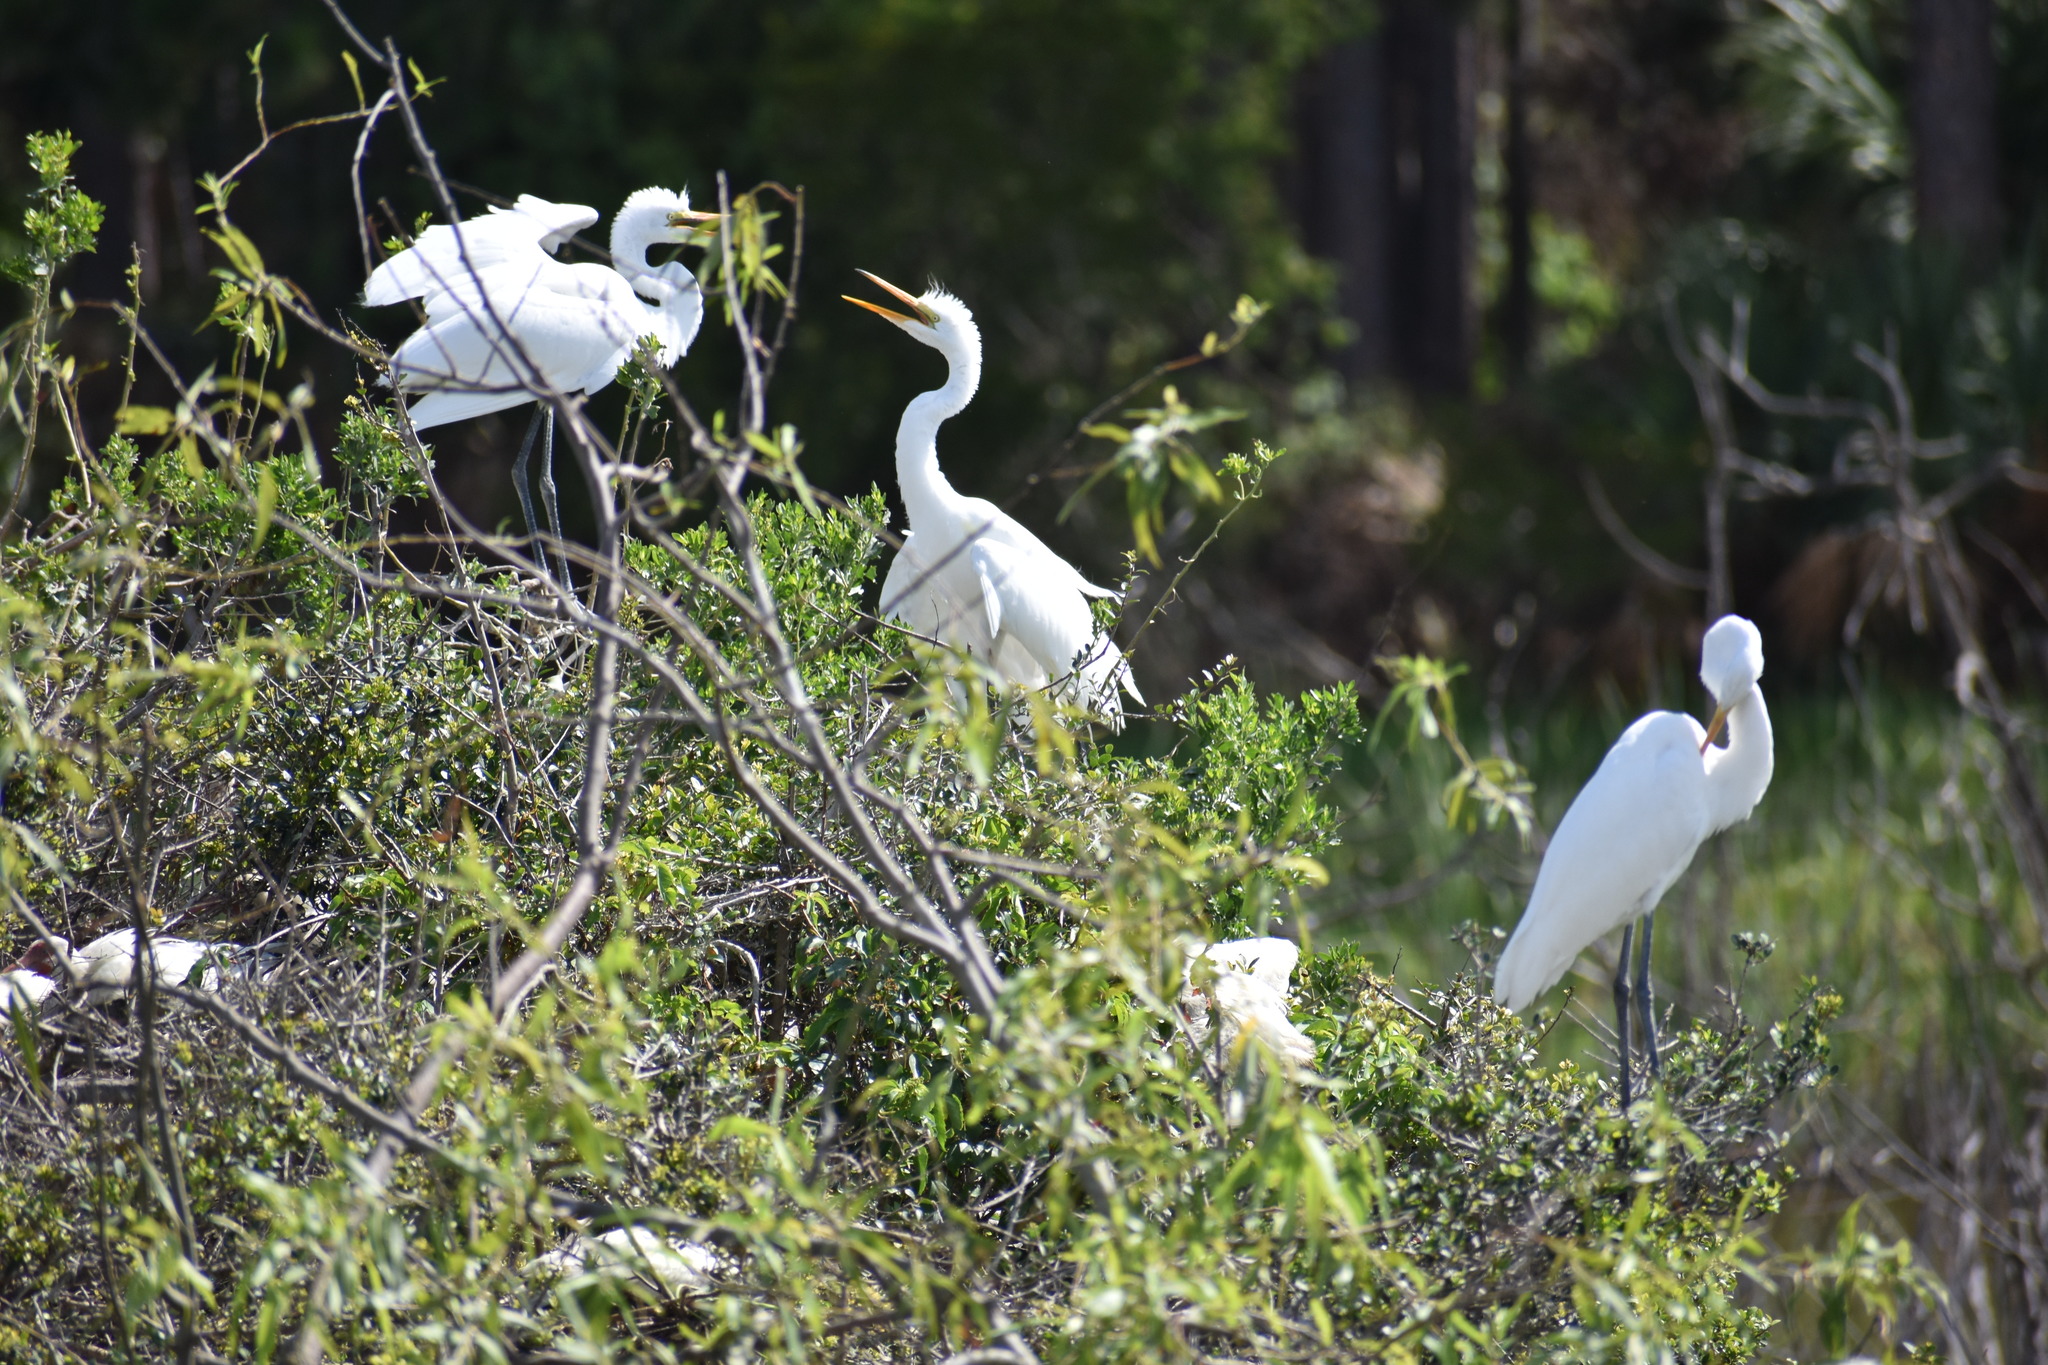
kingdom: Animalia
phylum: Chordata
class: Aves
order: Pelecaniformes
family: Ardeidae
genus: Ardea
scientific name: Ardea alba
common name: Great egret
